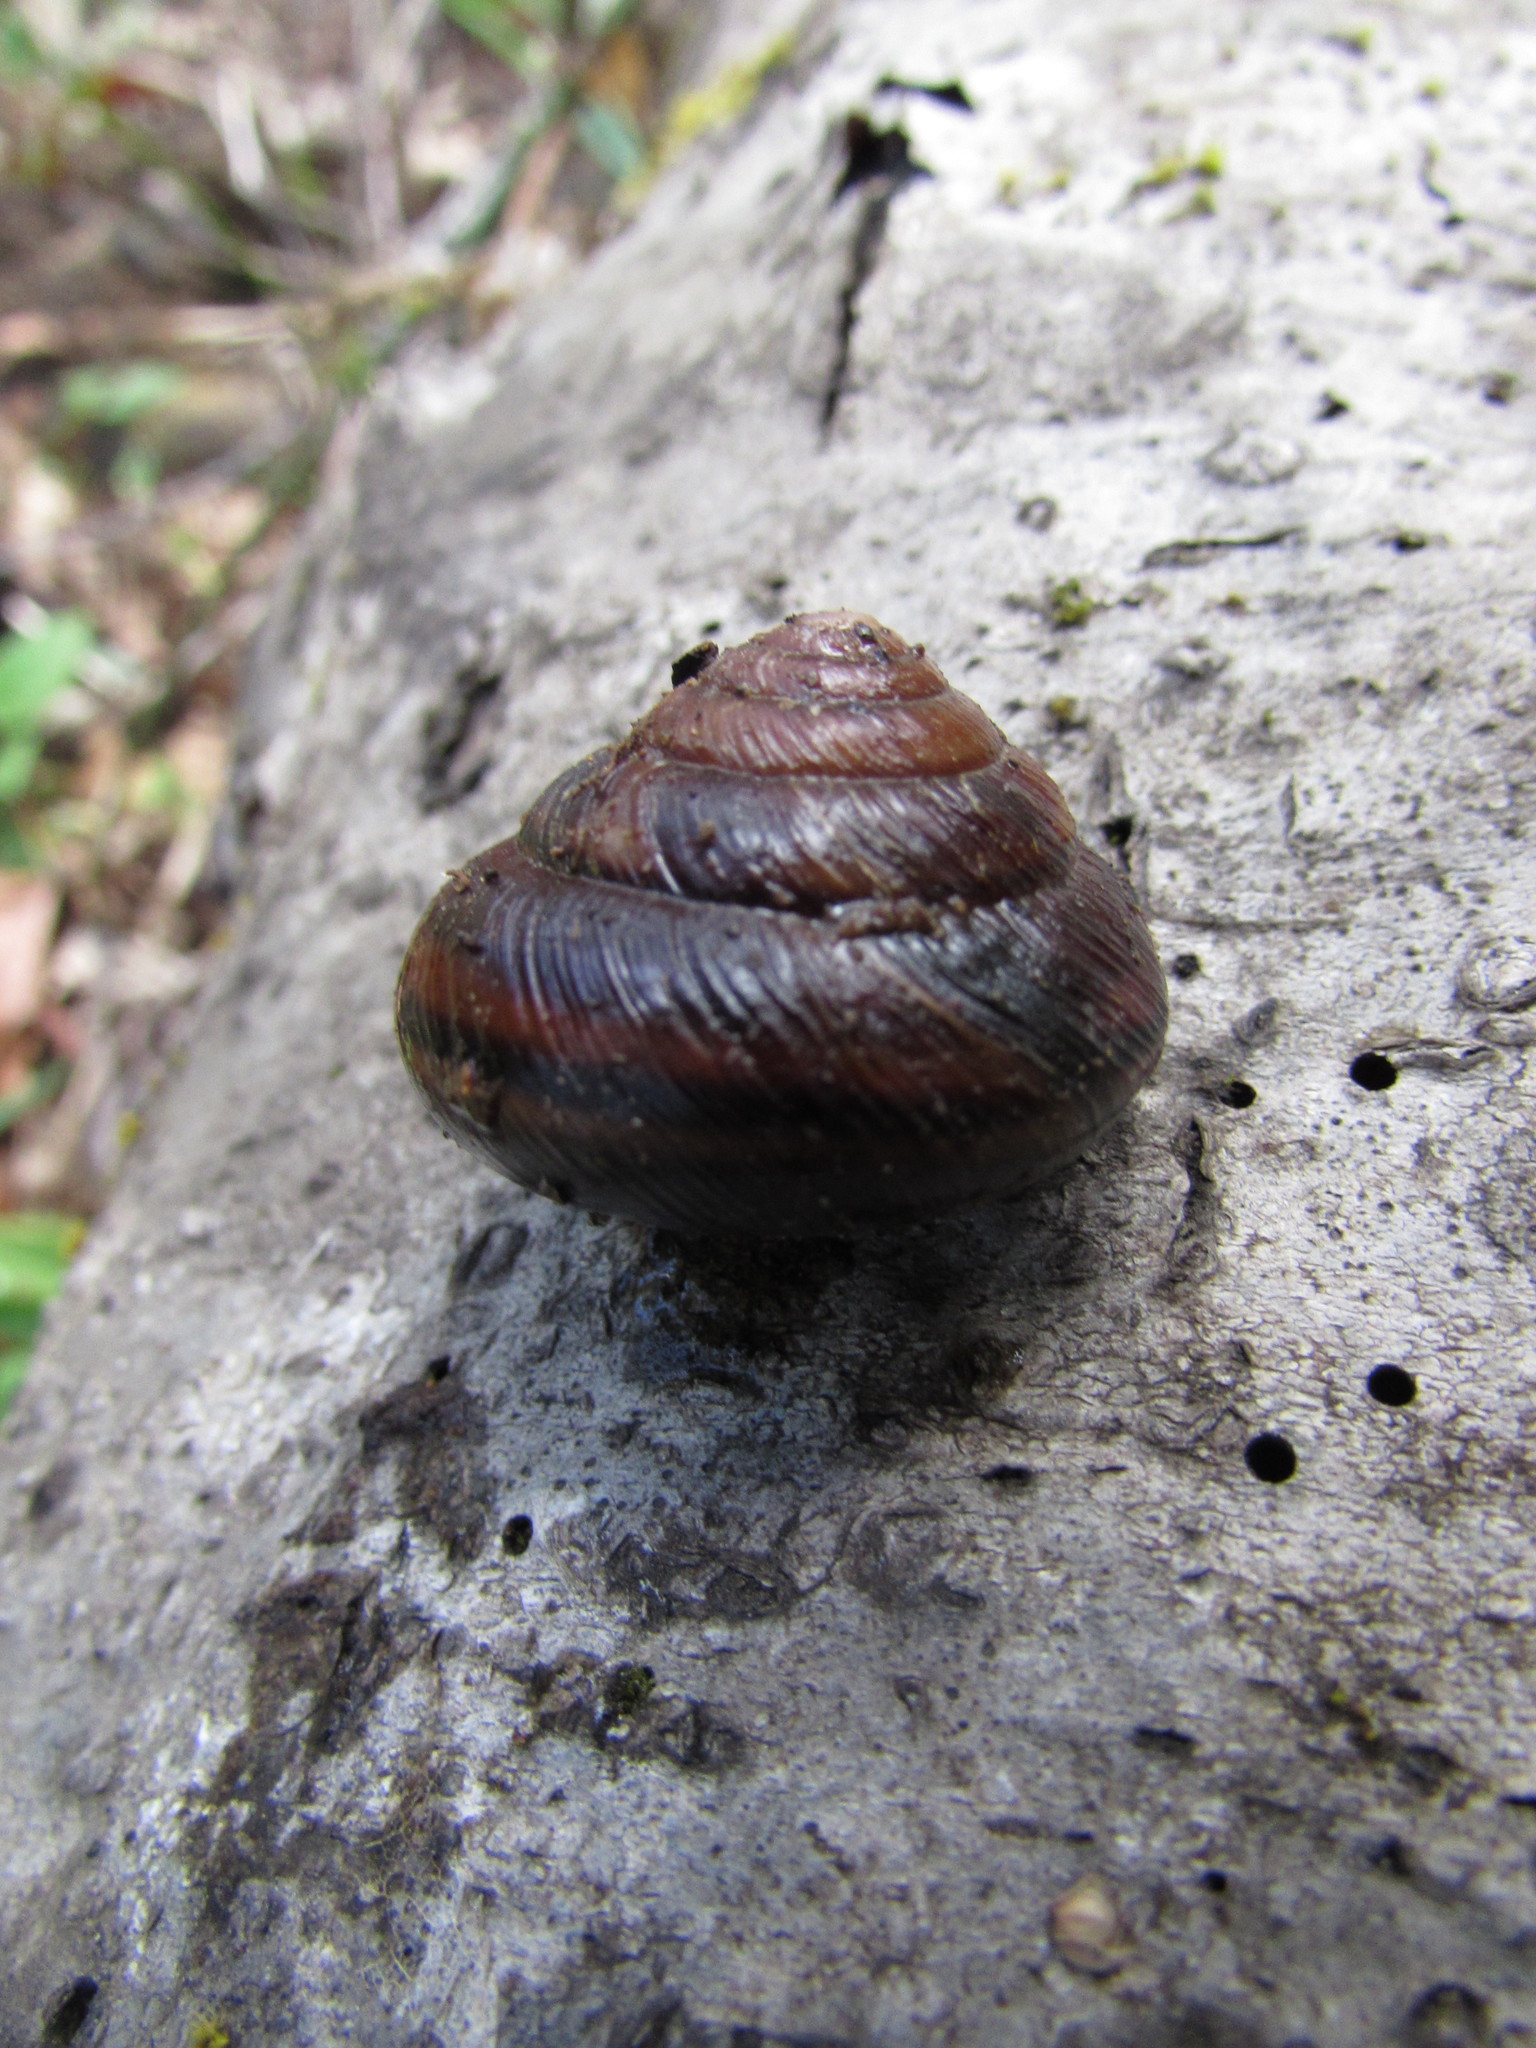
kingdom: Animalia
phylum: Mollusca
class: Gastropoda
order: Stylommatophora
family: Xanthonychidae
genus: Monadenia
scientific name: Monadenia fidelis
